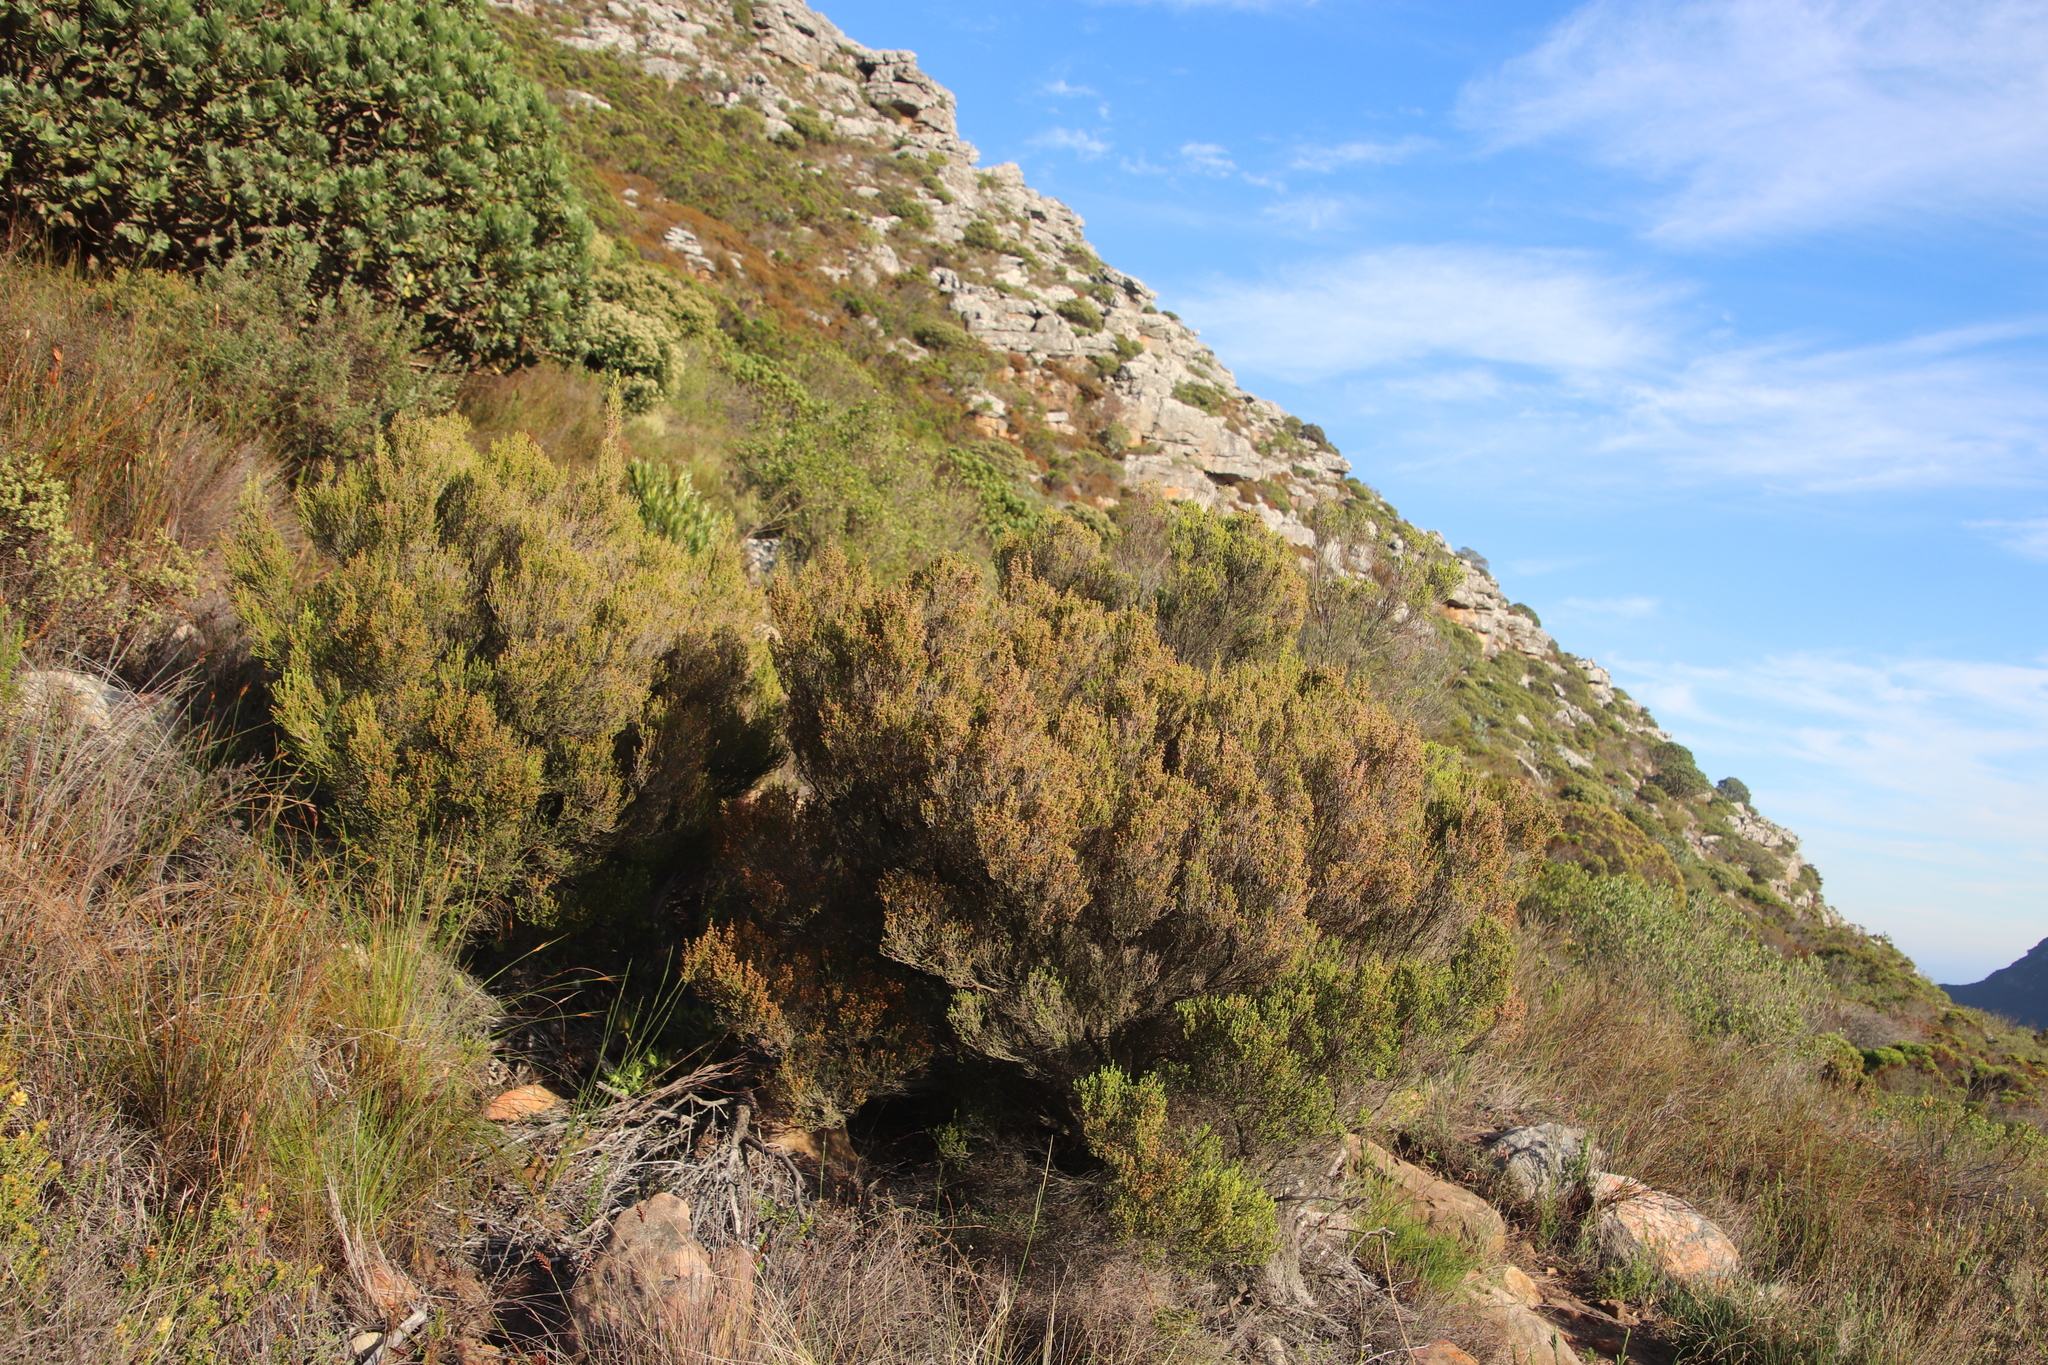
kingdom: Plantae
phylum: Tracheophyta
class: Magnoliopsida
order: Ericales
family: Ericaceae
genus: Erica
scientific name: Erica tristis
